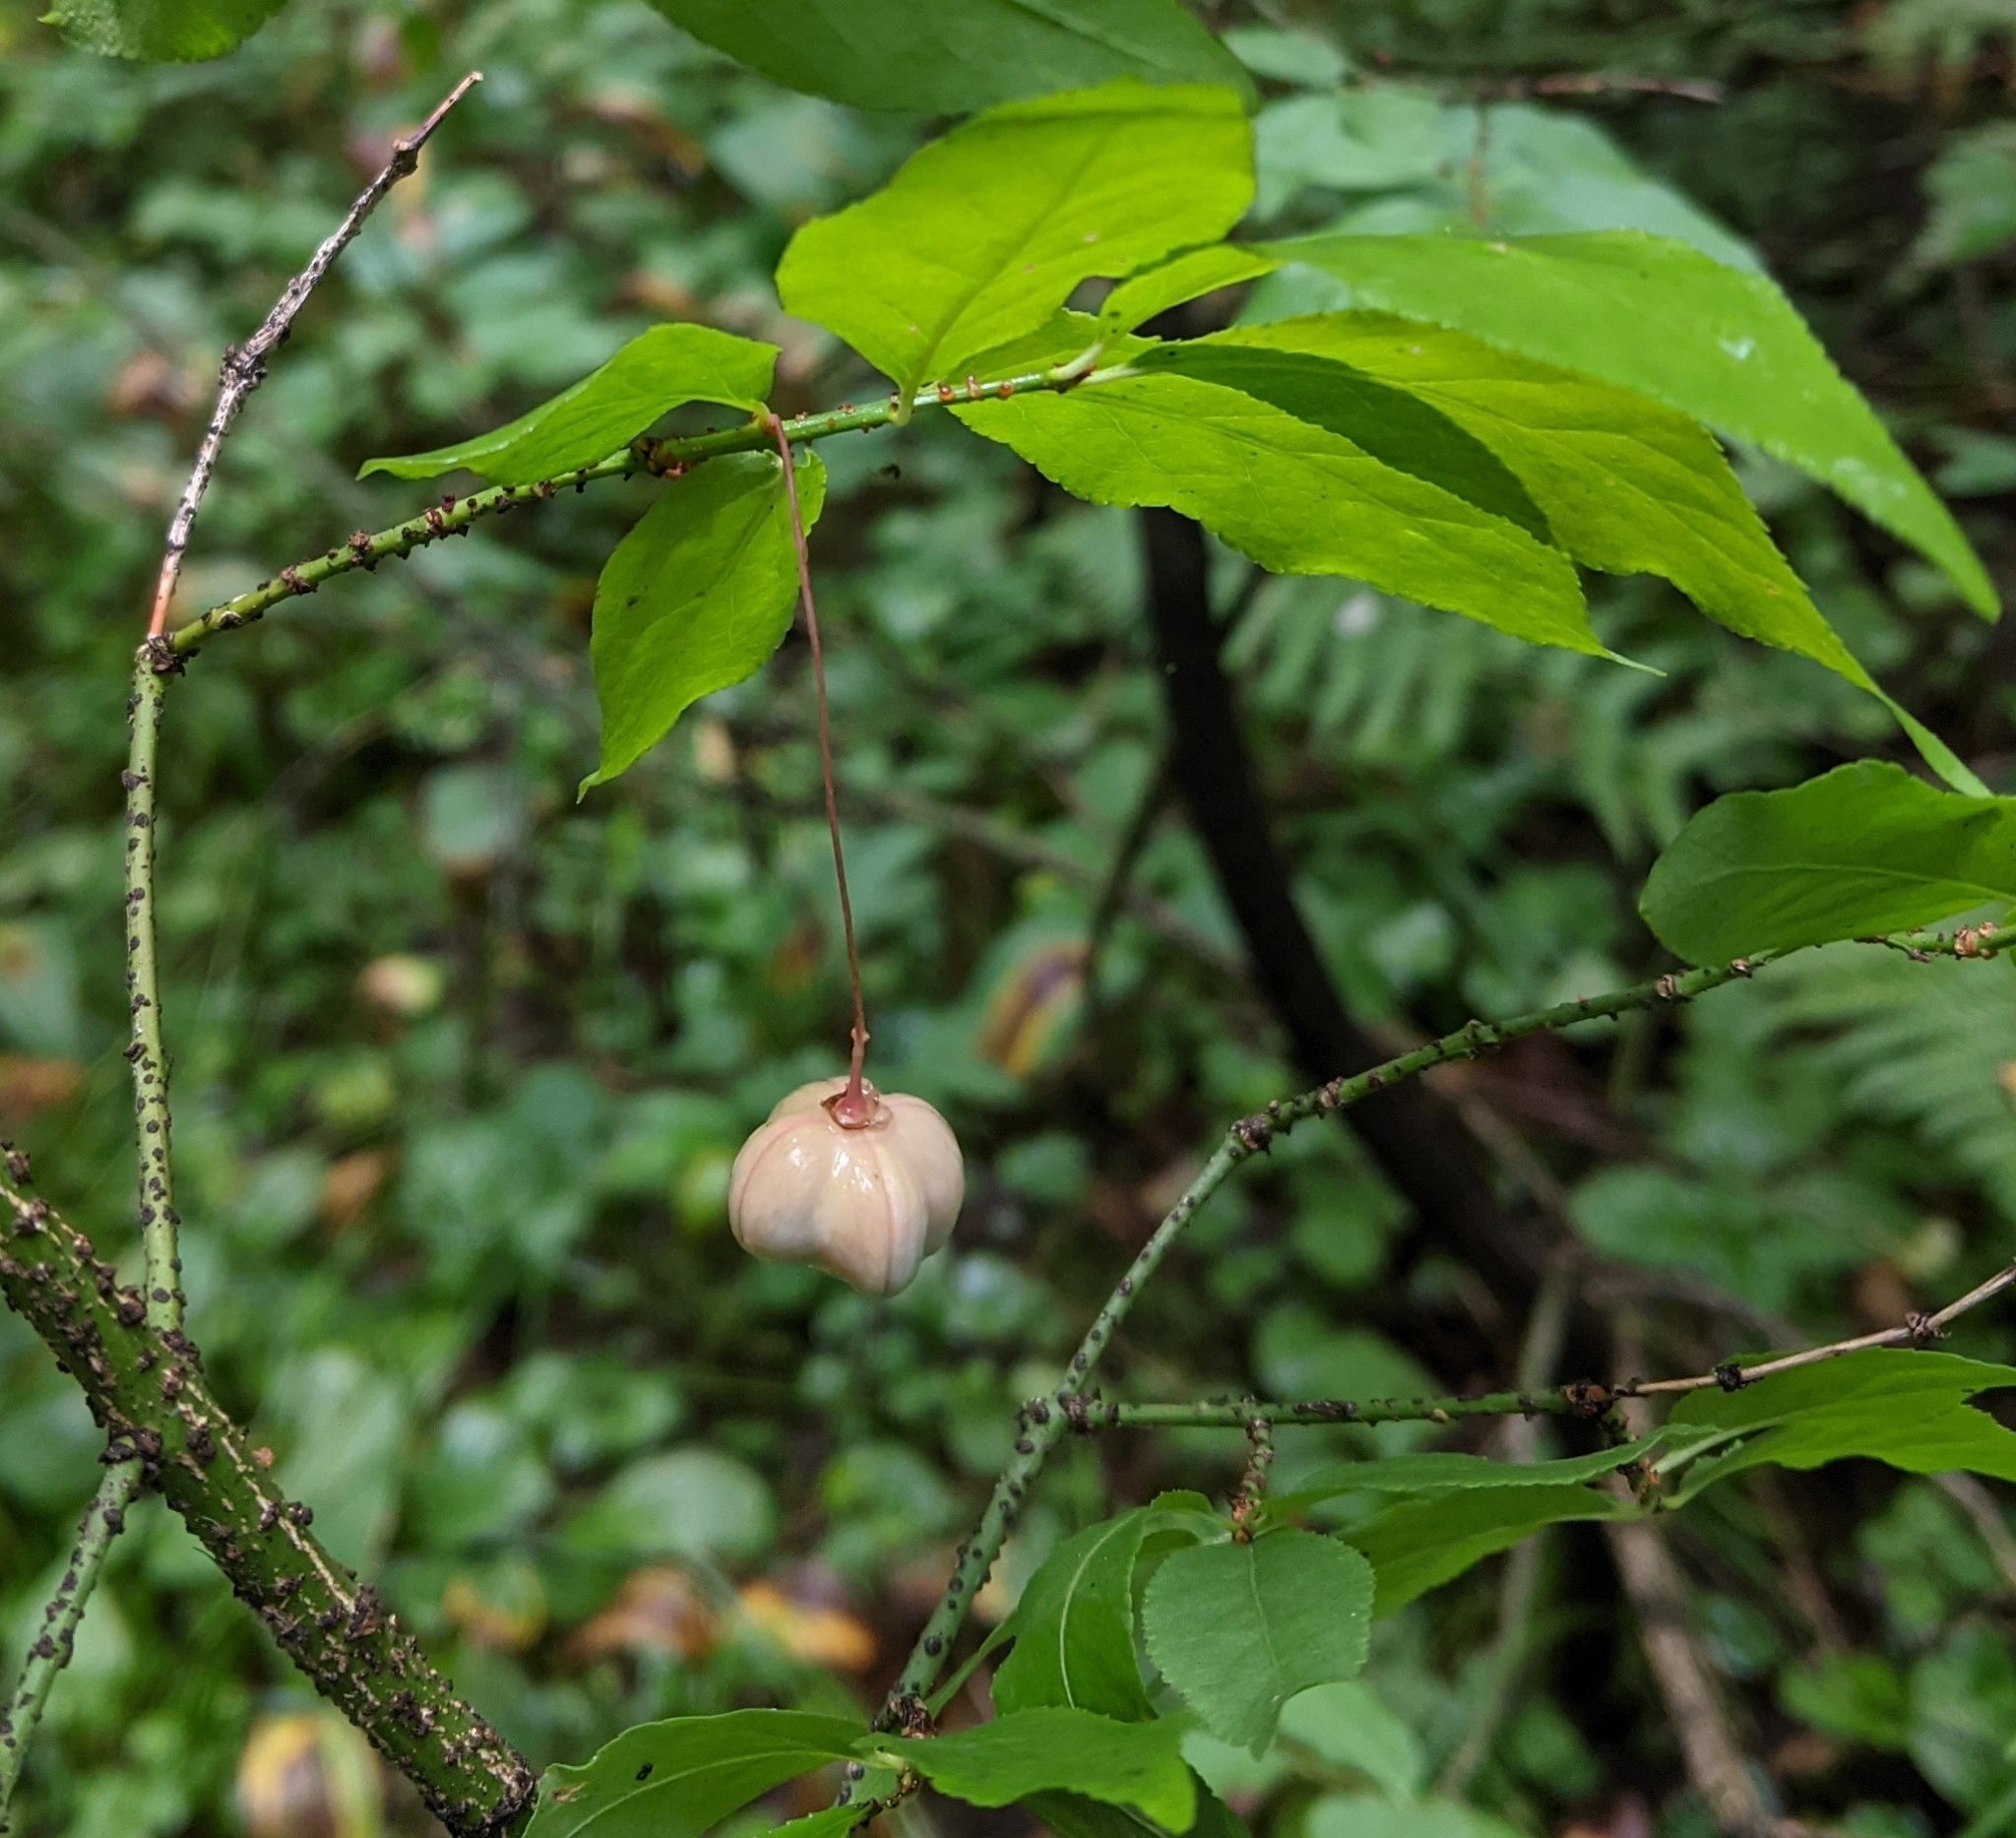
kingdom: Plantae
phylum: Tracheophyta
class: Magnoliopsida
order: Celastrales
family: Celastraceae
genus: Euonymus
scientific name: Euonymus verrucosus
